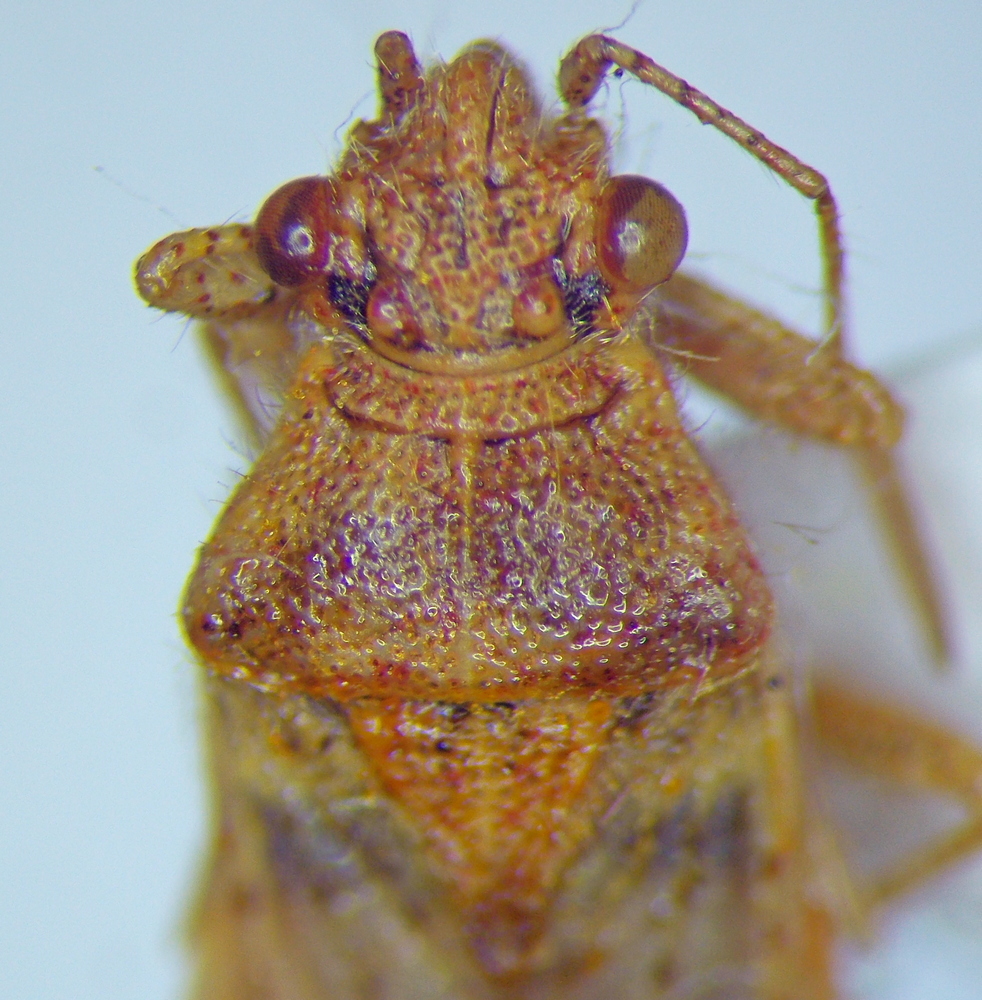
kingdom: Animalia
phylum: Arthropoda
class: Insecta
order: Hemiptera
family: Rhopalidae
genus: Rhopalus
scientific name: Rhopalus parumpunctatus
